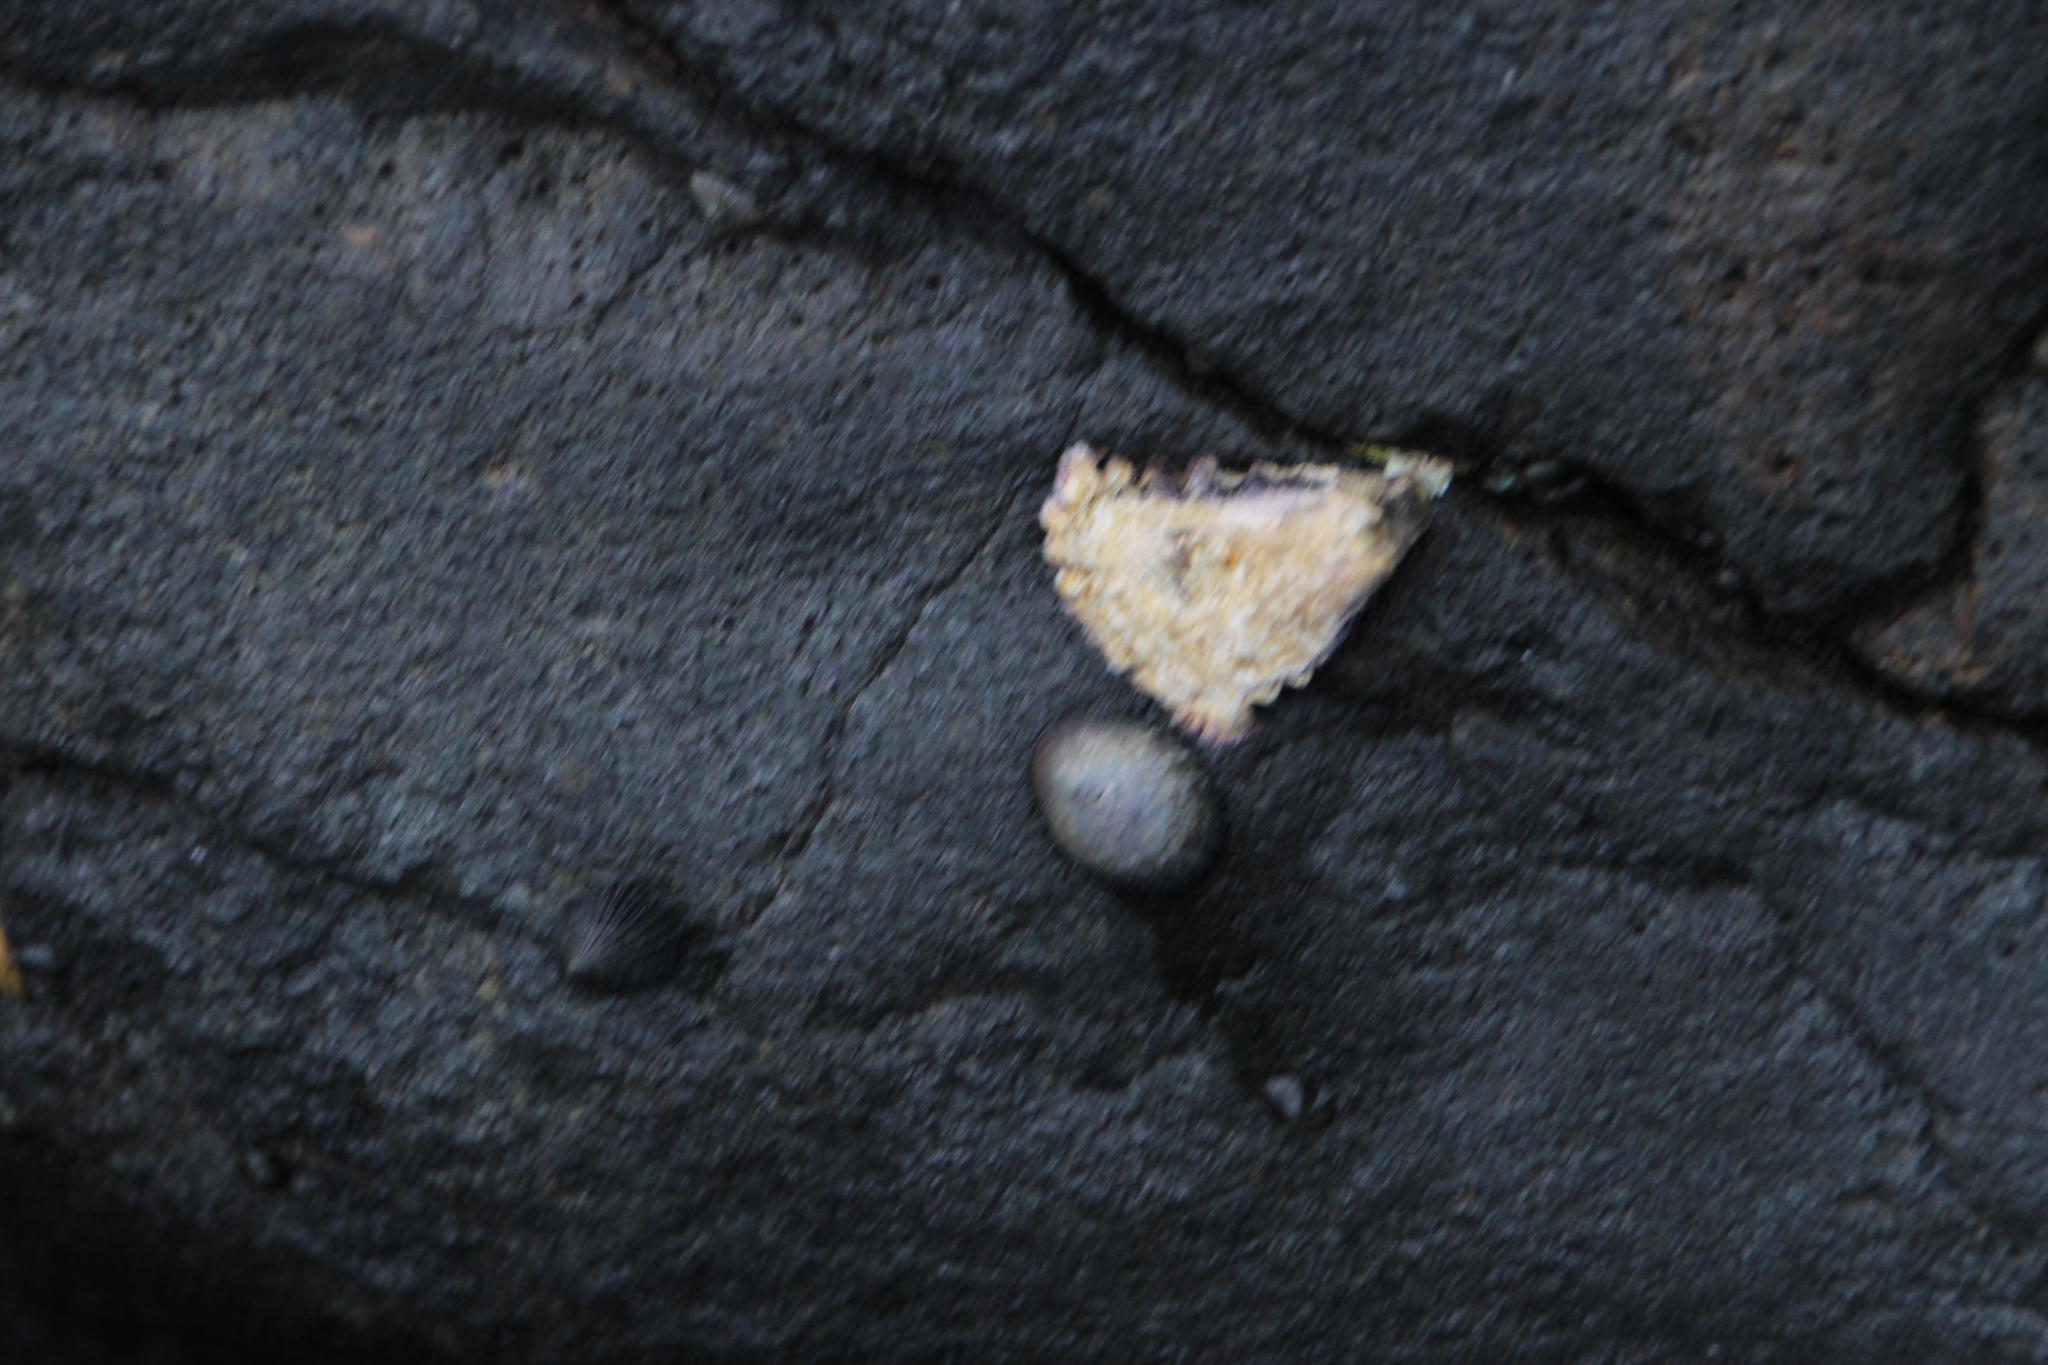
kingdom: Animalia
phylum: Mollusca
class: Bivalvia
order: Ostreida
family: Ostreidae
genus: Saccostrea
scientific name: Saccostrea cuccullata
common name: Natal rock oyster
